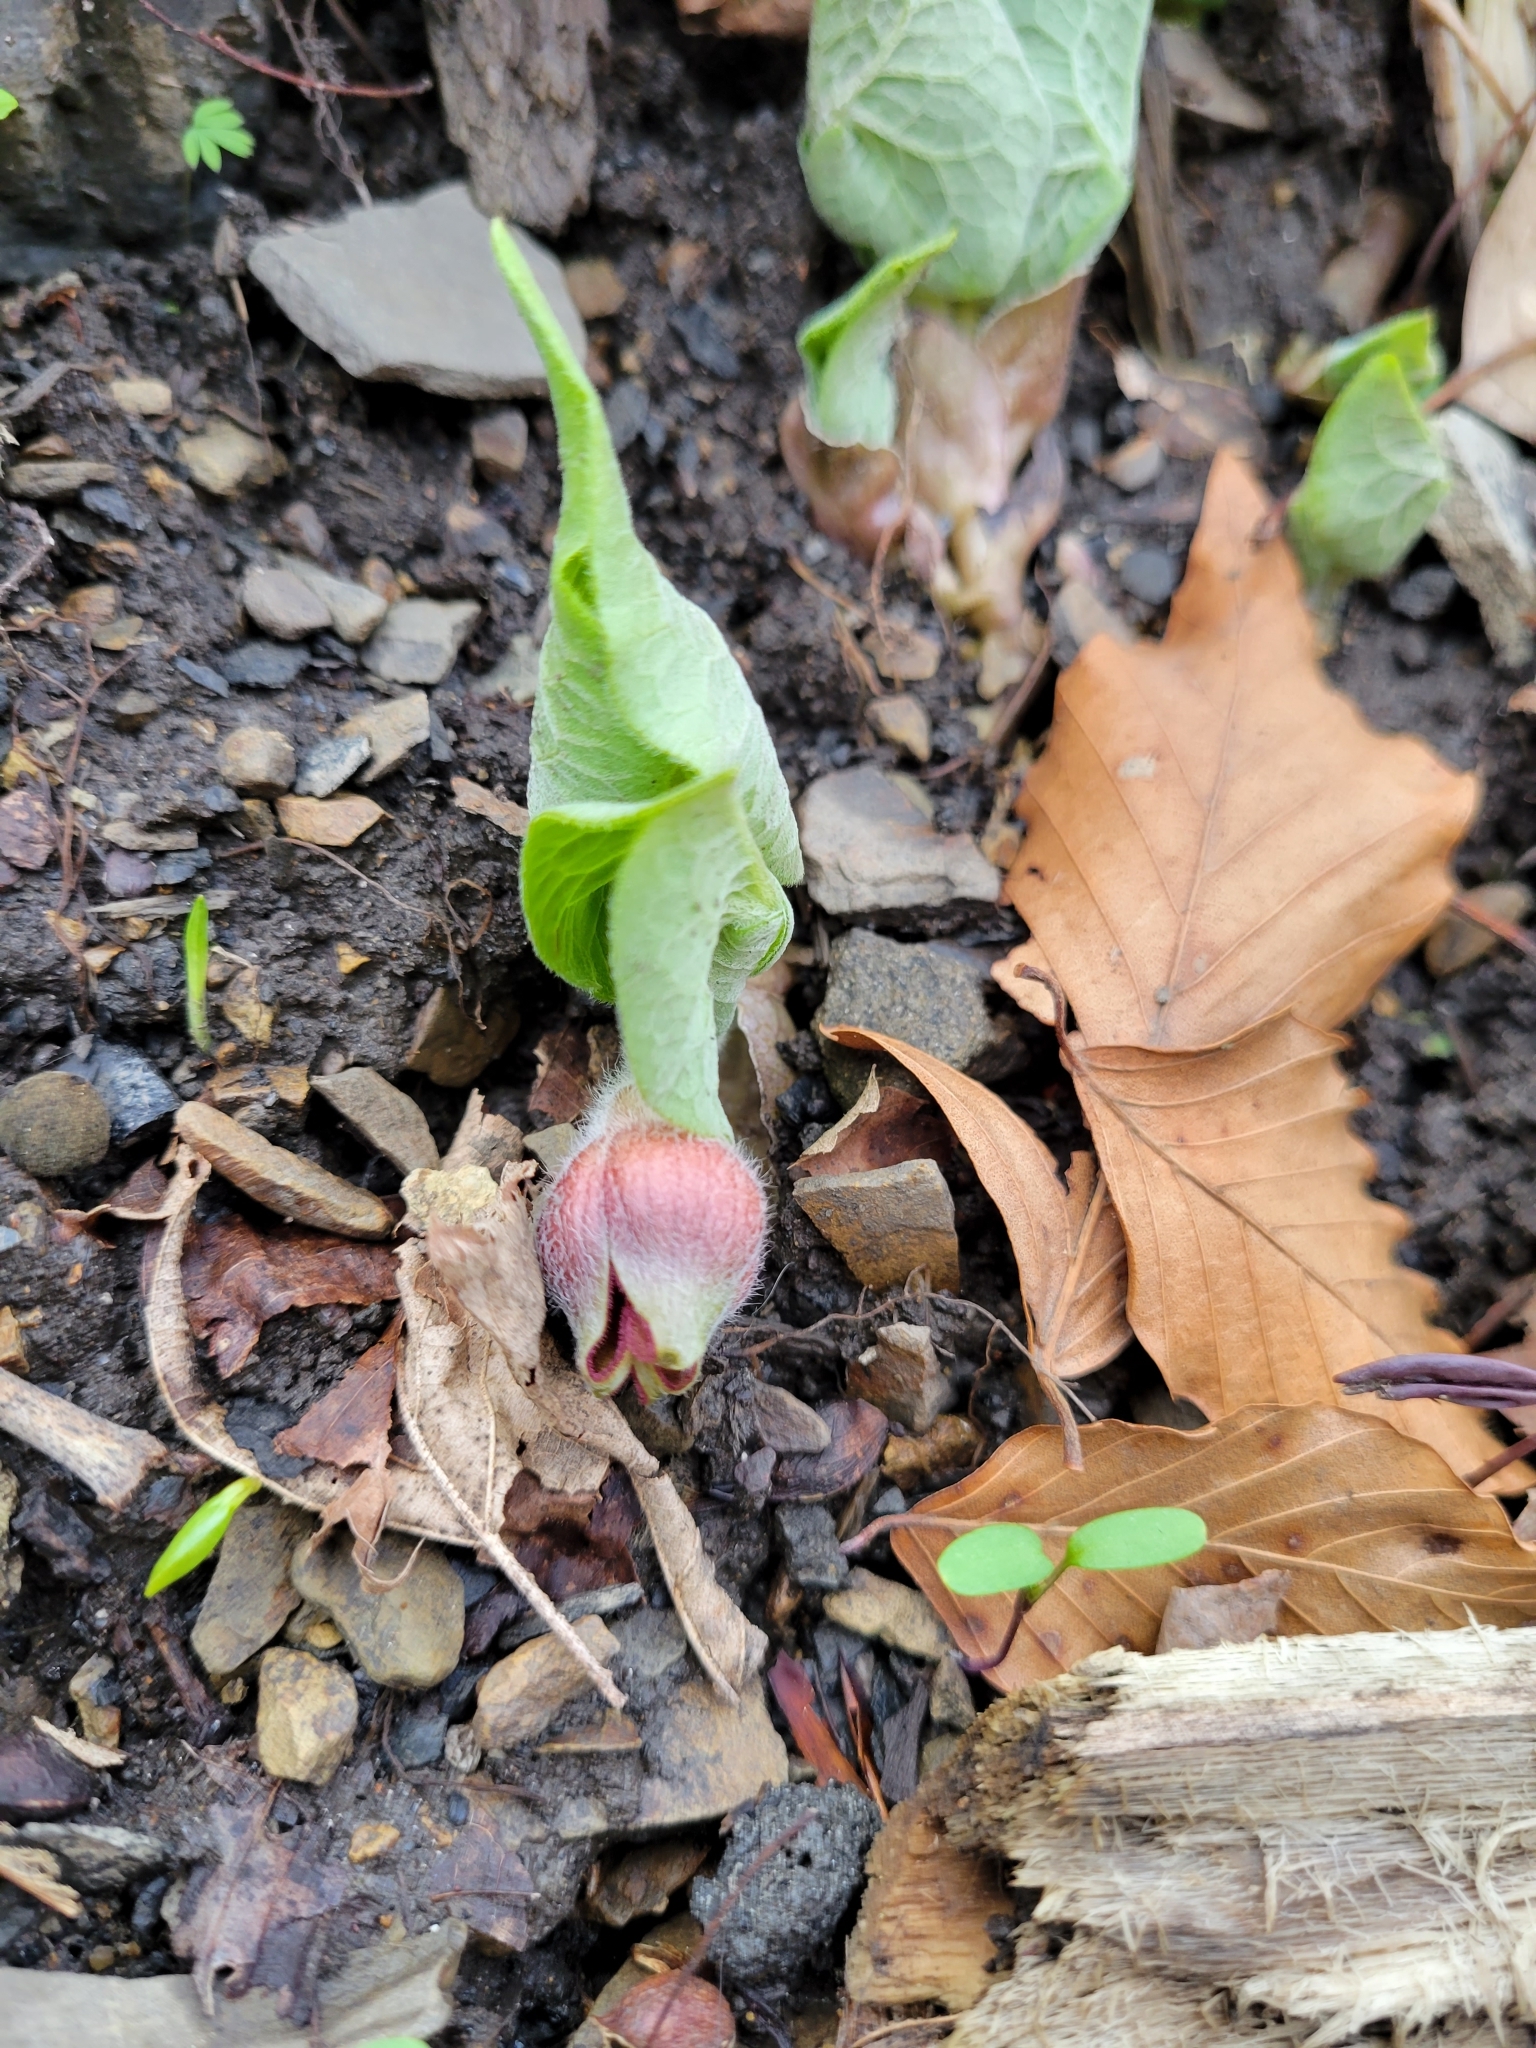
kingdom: Plantae
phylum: Tracheophyta
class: Magnoliopsida
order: Piperales
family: Aristolochiaceae
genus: Asarum
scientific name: Asarum canadense
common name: Wild ginger
